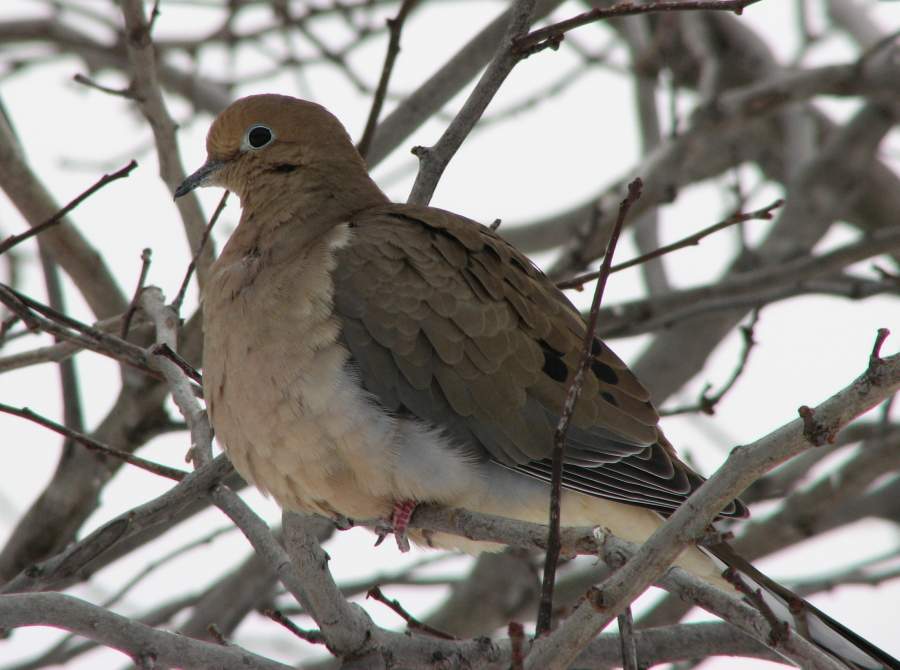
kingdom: Animalia
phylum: Chordata
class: Aves
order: Columbiformes
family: Columbidae
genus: Zenaida
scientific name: Zenaida macroura
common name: Mourning dove
